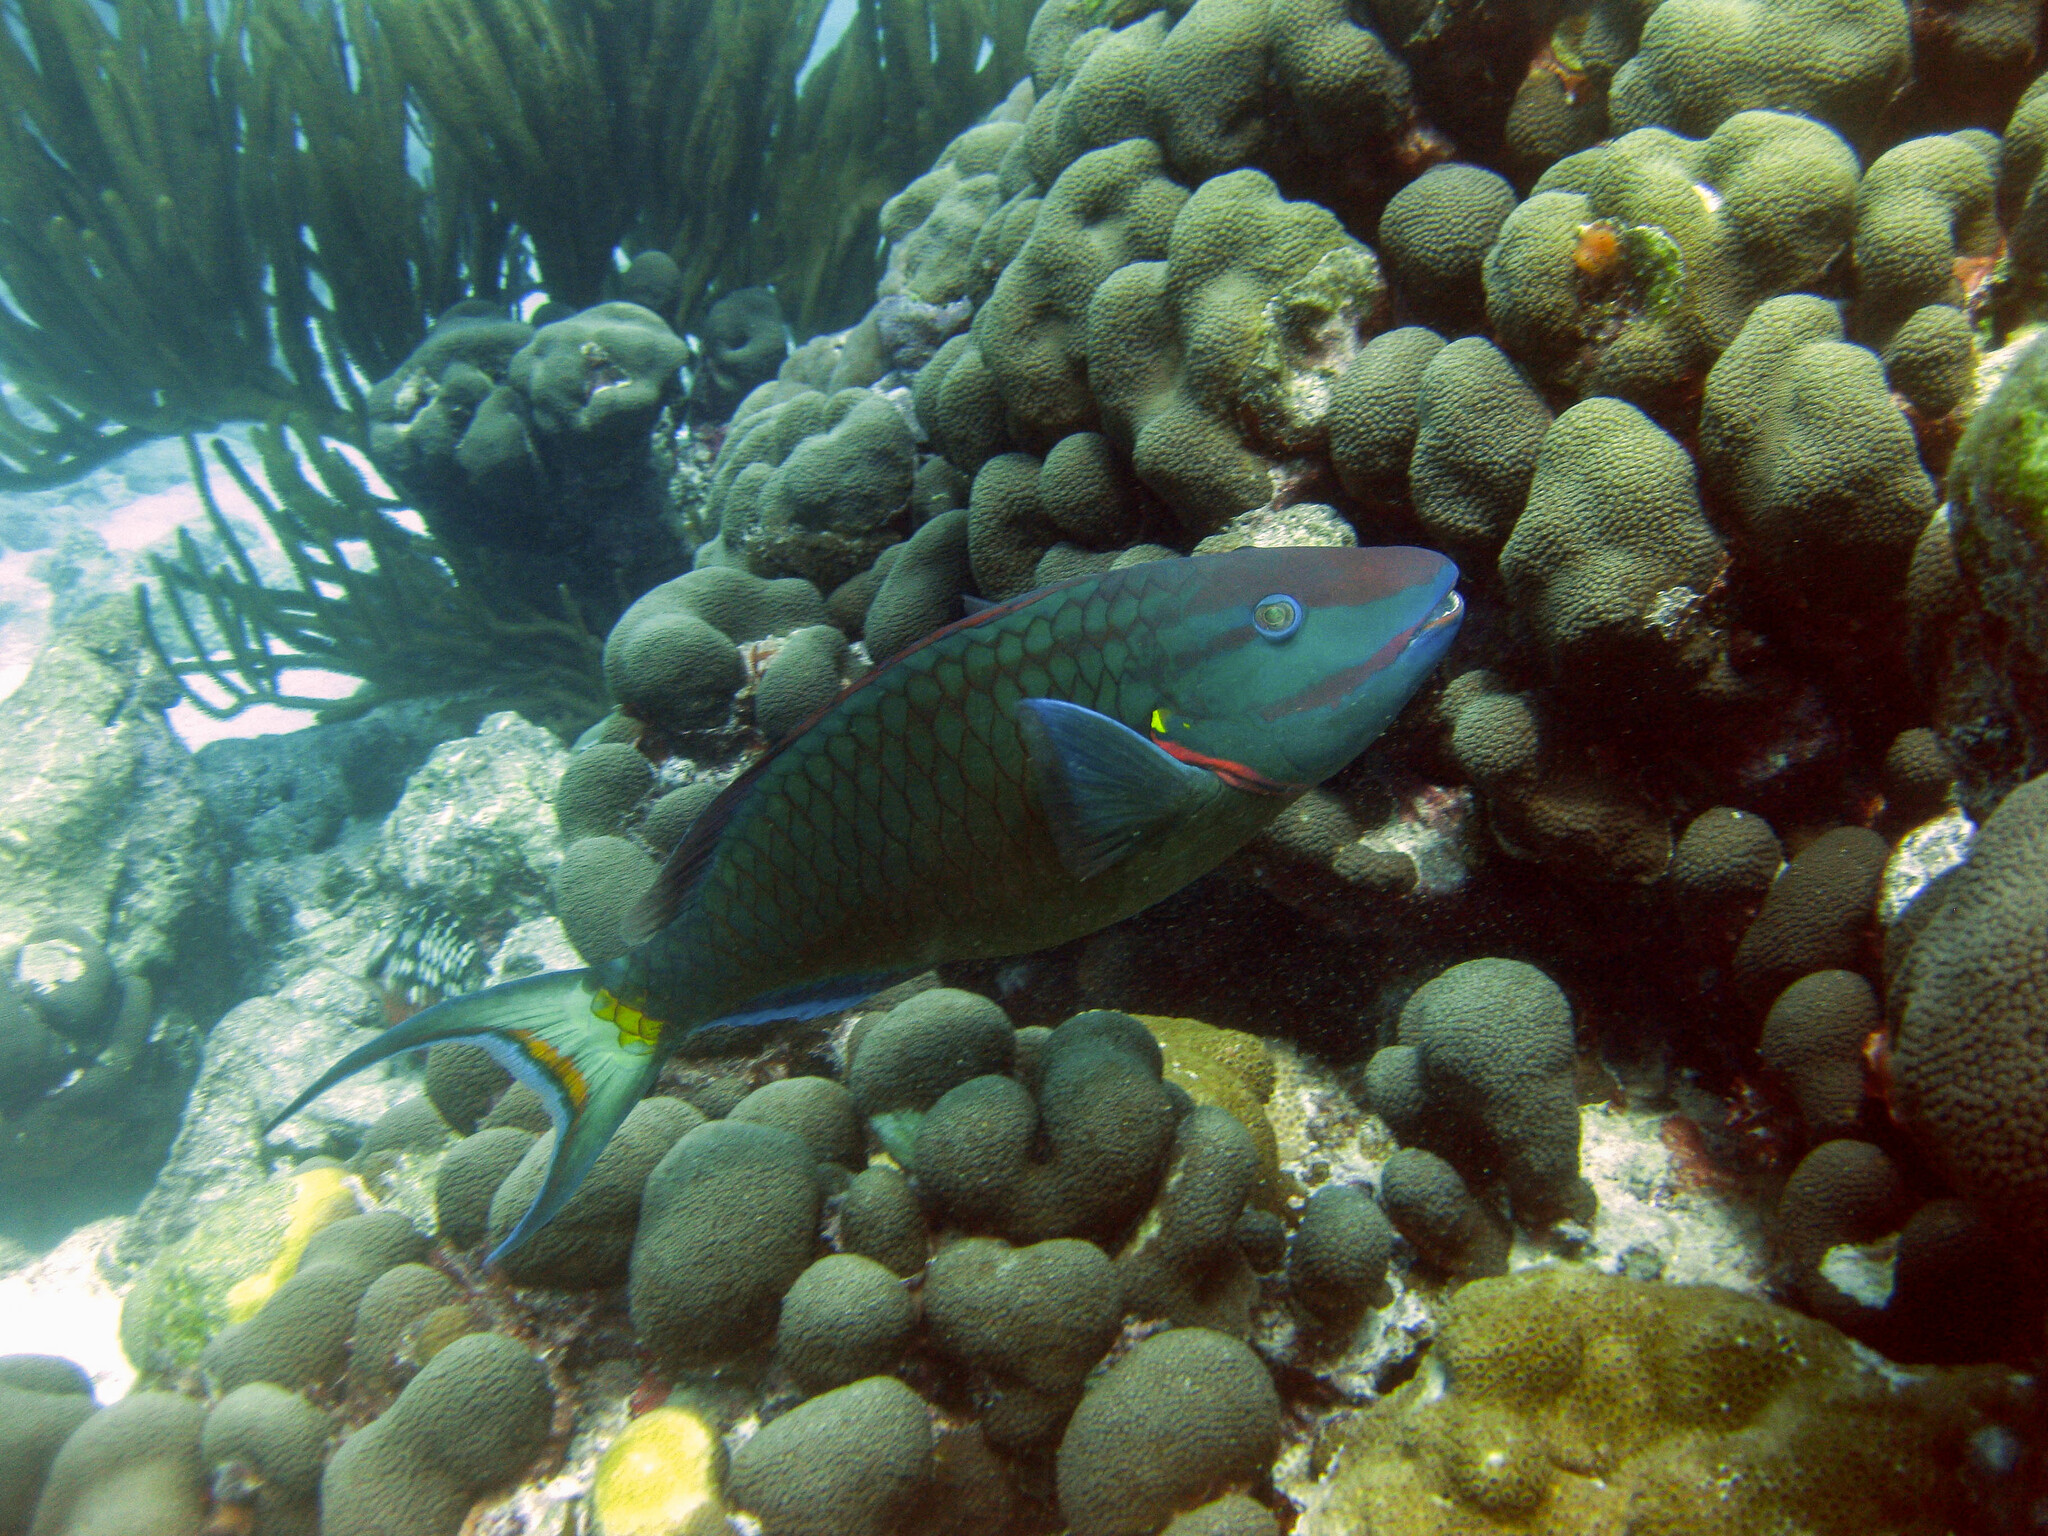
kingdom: Animalia
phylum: Chordata
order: Perciformes
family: Scaridae
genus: Sparisoma
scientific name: Sparisoma viride
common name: Stoplight parrotfish
